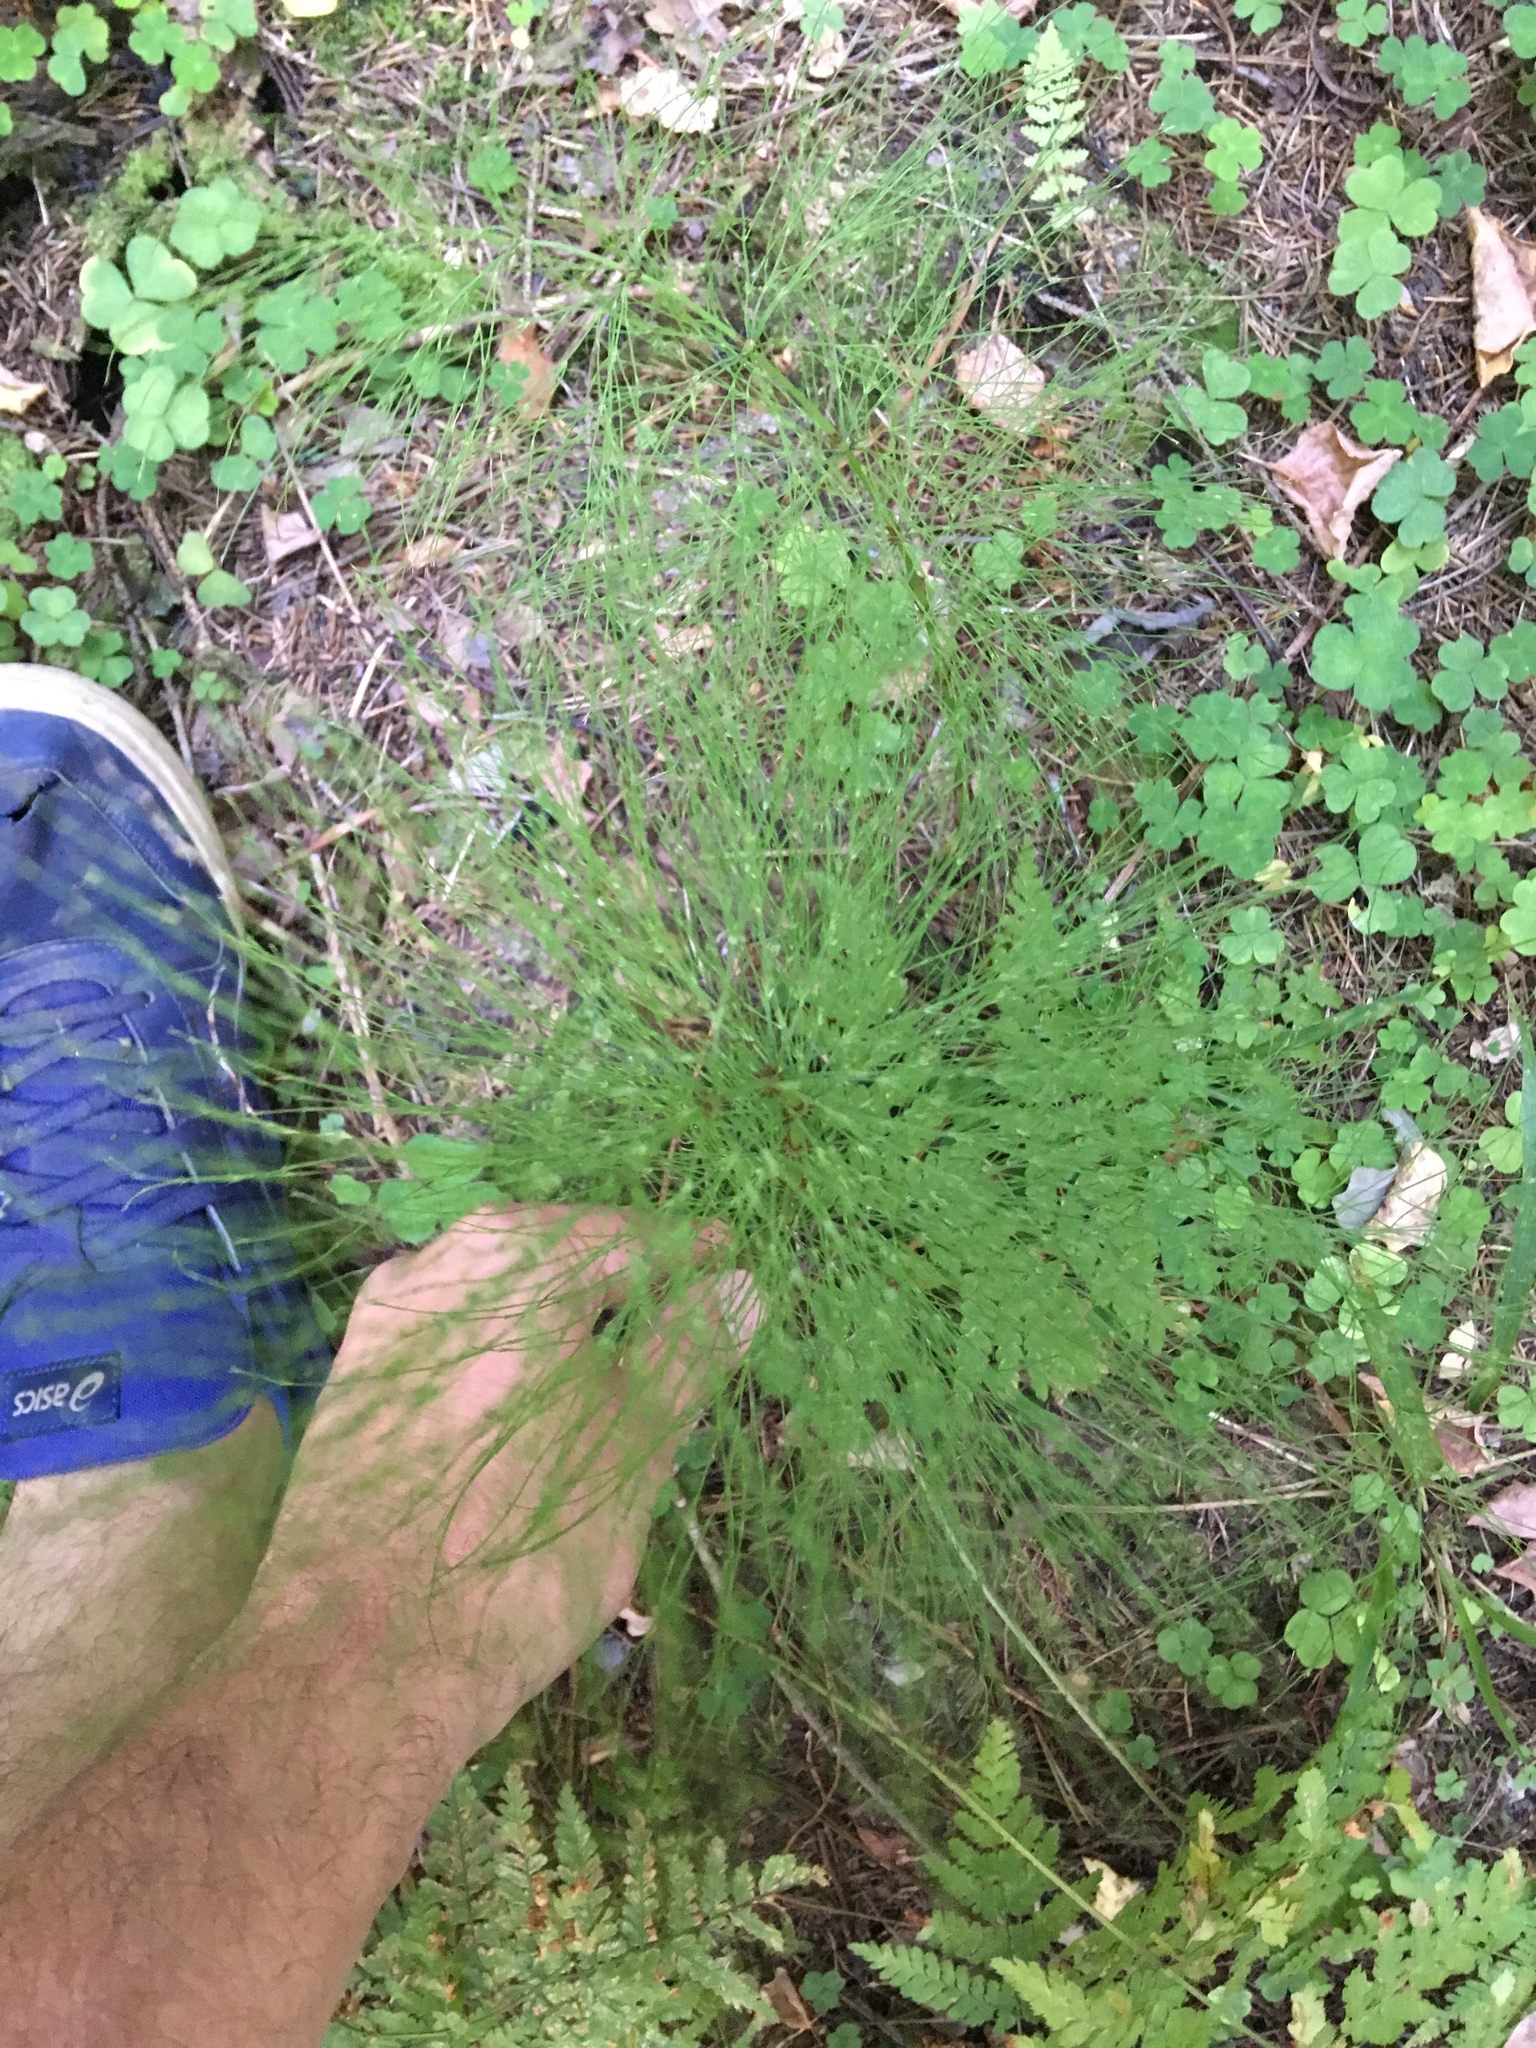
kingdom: Plantae
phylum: Tracheophyta
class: Polypodiopsida
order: Equisetales
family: Equisetaceae
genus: Equisetum
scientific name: Equisetum sylvaticum
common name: Wood horsetail
